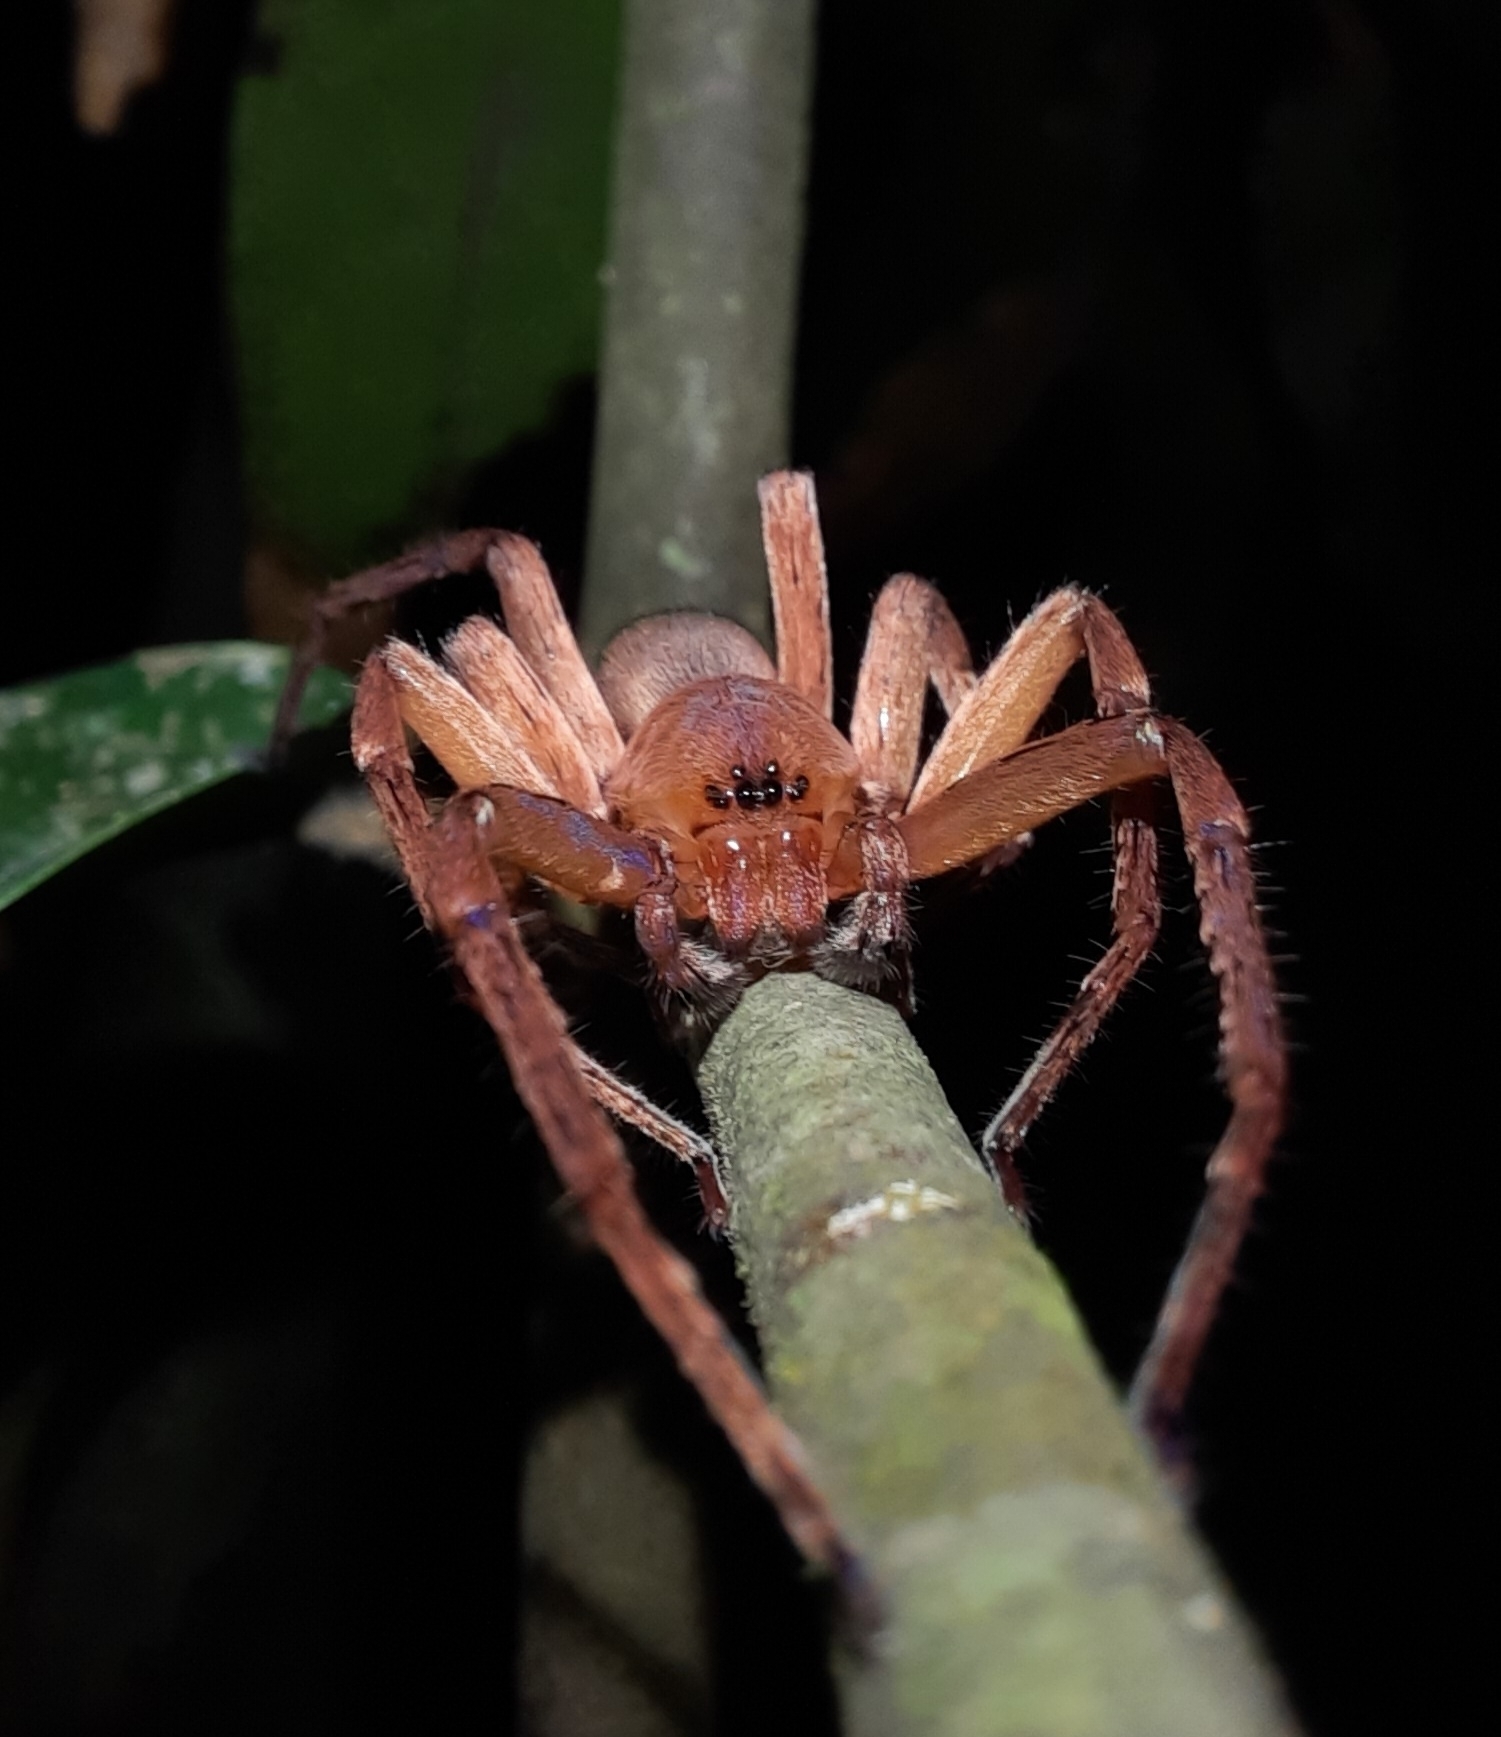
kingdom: Animalia
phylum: Arthropoda
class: Arachnida
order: Araneae
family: Sparassidae
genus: Thelcticopis
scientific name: Thelcticopis kirankhalapi
